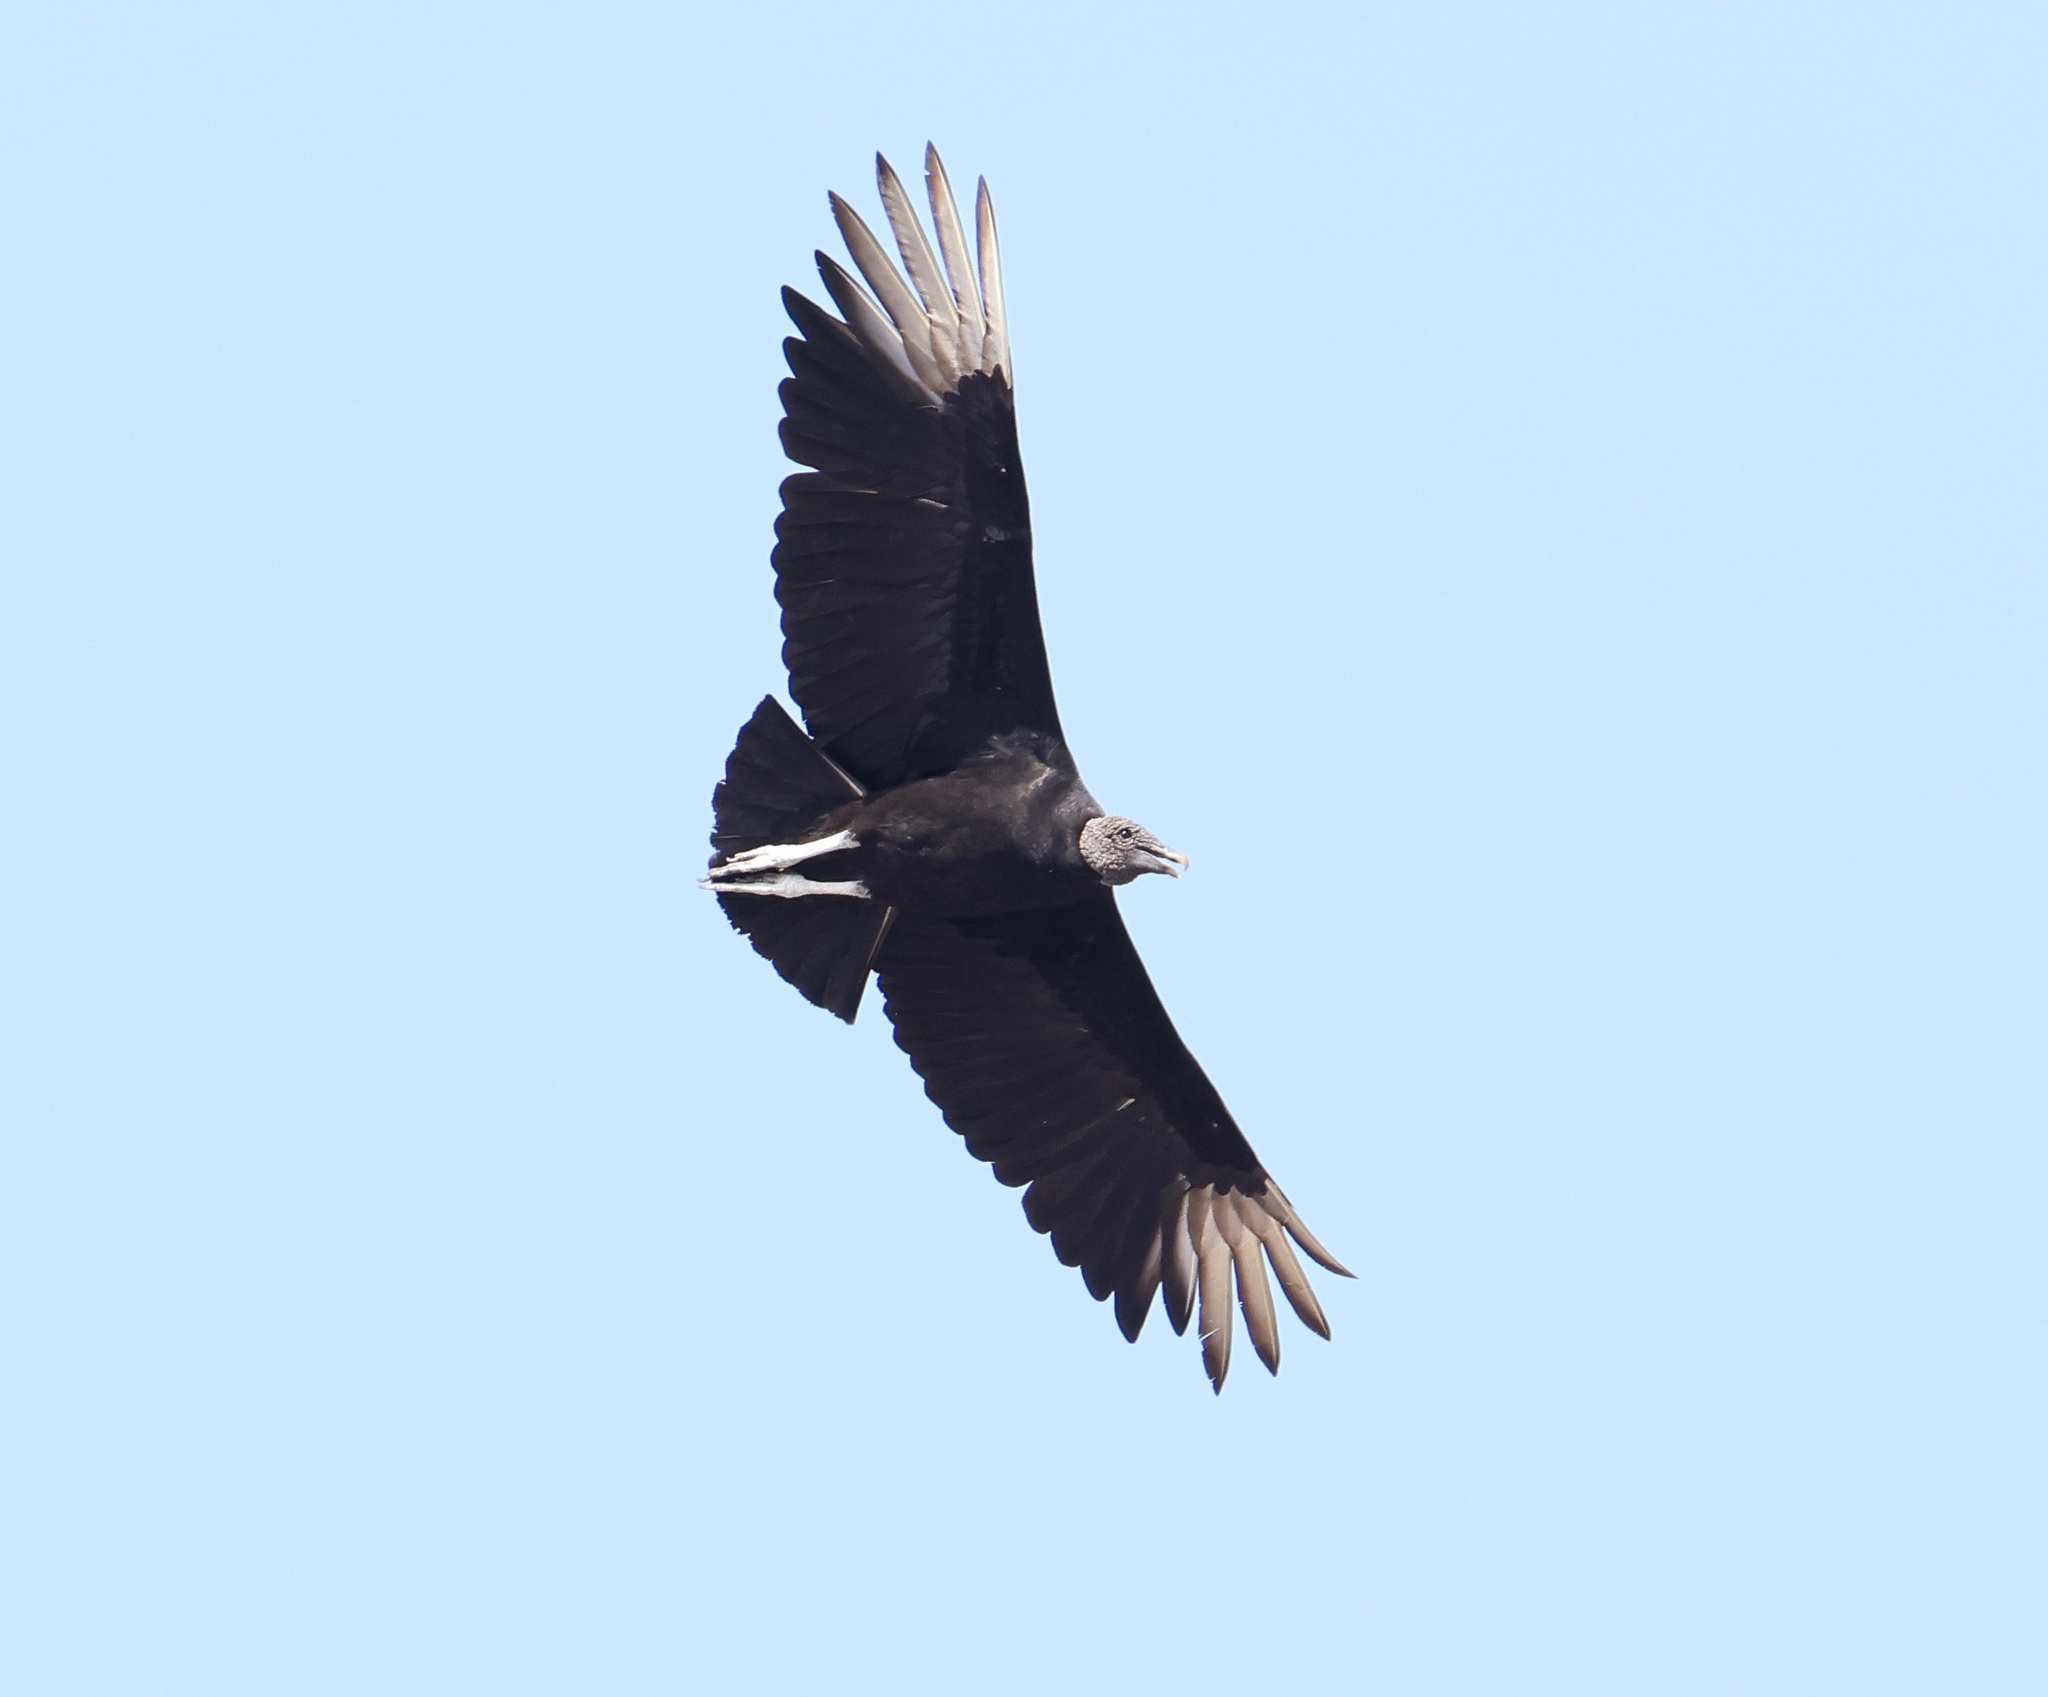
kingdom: Animalia
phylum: Chordata
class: Aves
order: Accipitriformes
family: Cathartidae
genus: Coragyps
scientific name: Coragyps atratus
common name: Black vulture
